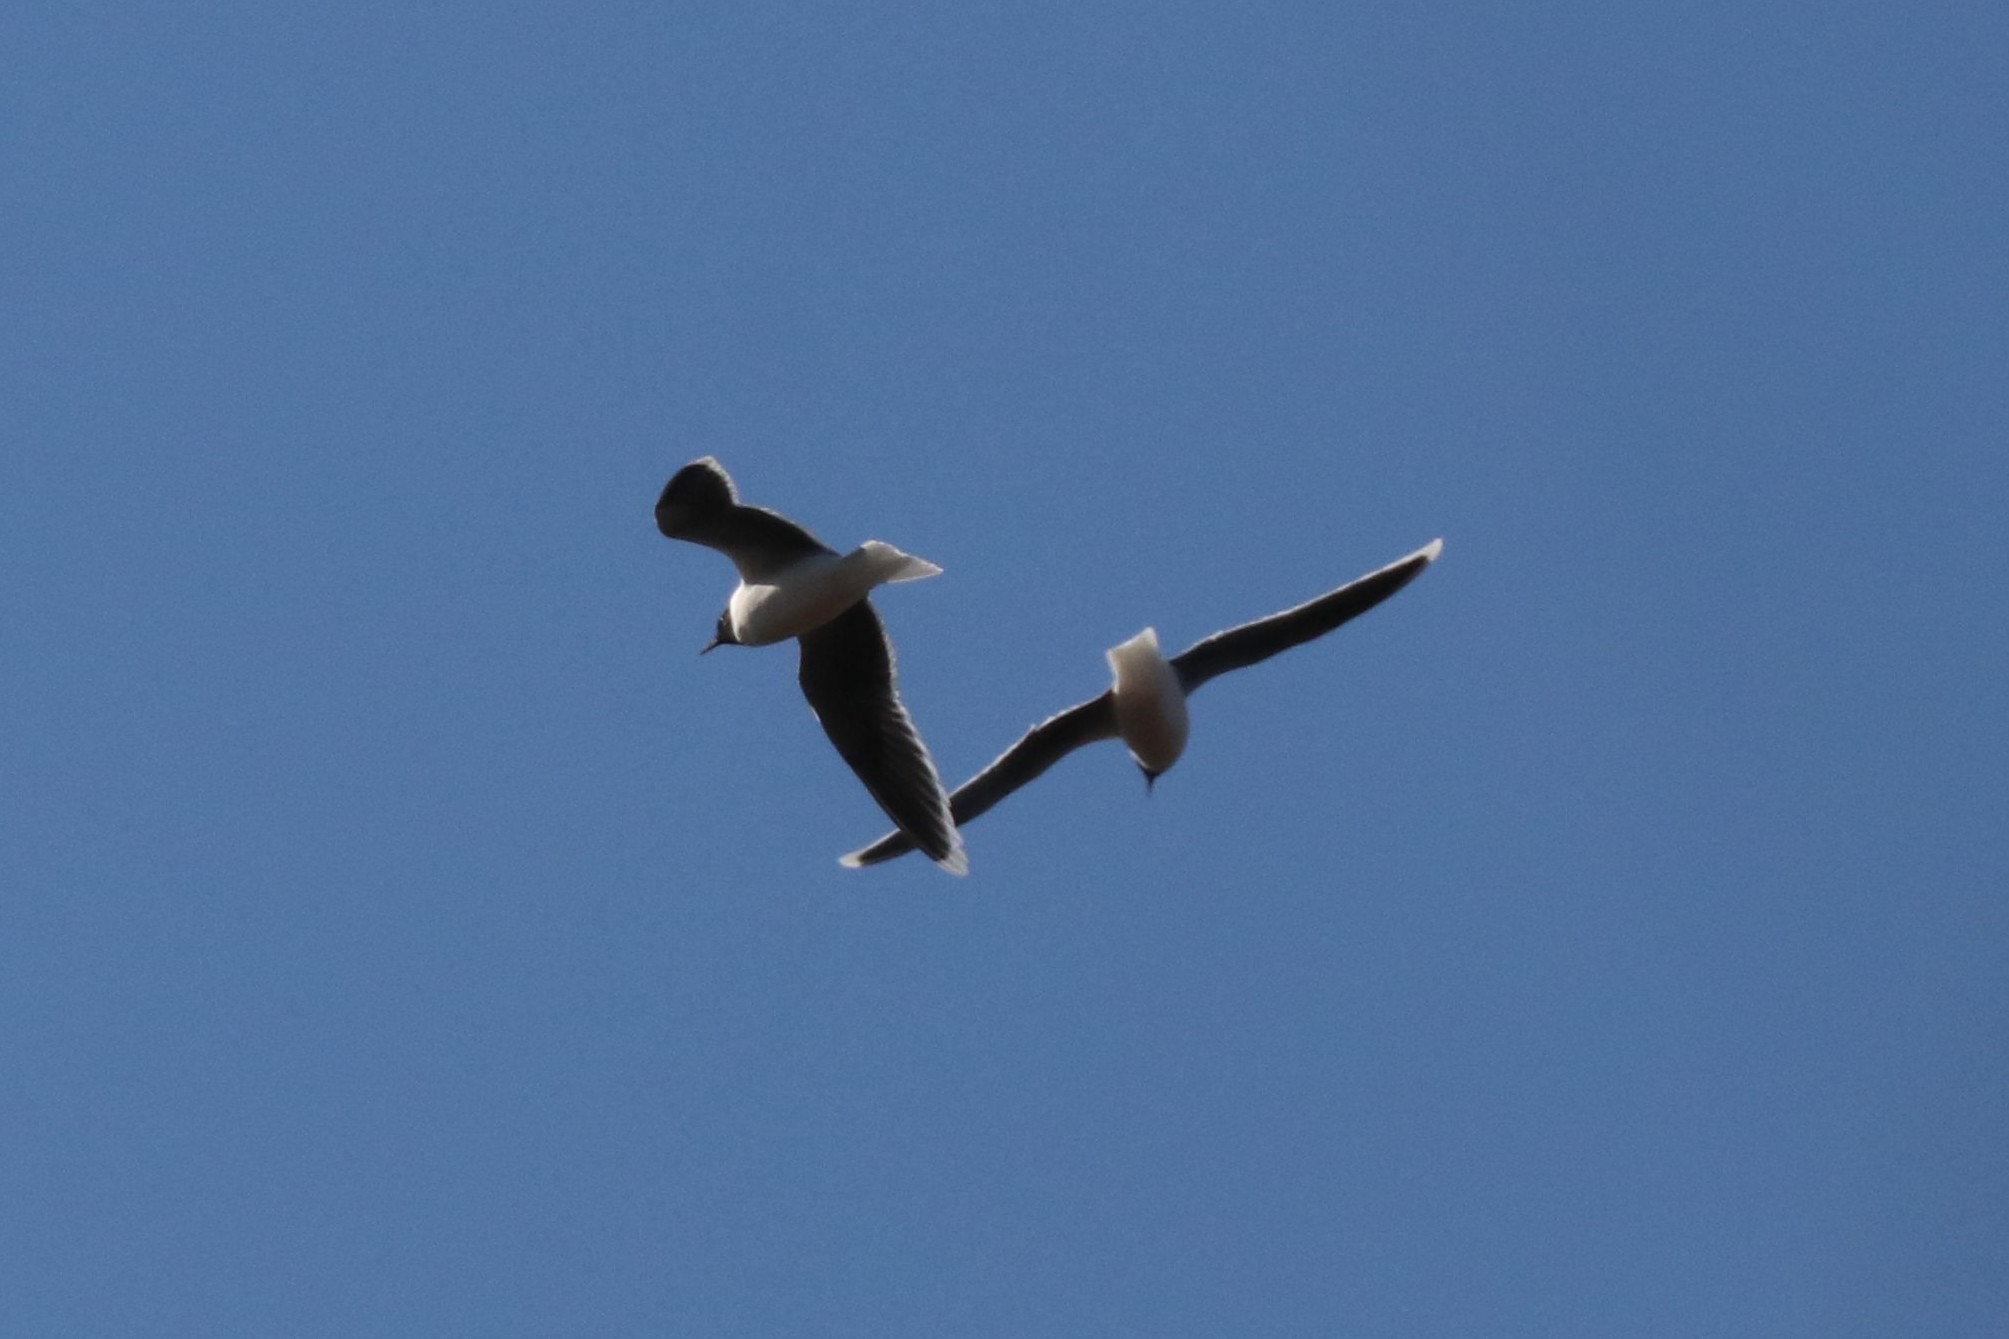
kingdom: Animalia
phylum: Chordata
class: Aves
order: Charadriiformes
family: Laridae
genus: Hydrocoloeus
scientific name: Hydrocoloeus minutus
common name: Little gull
